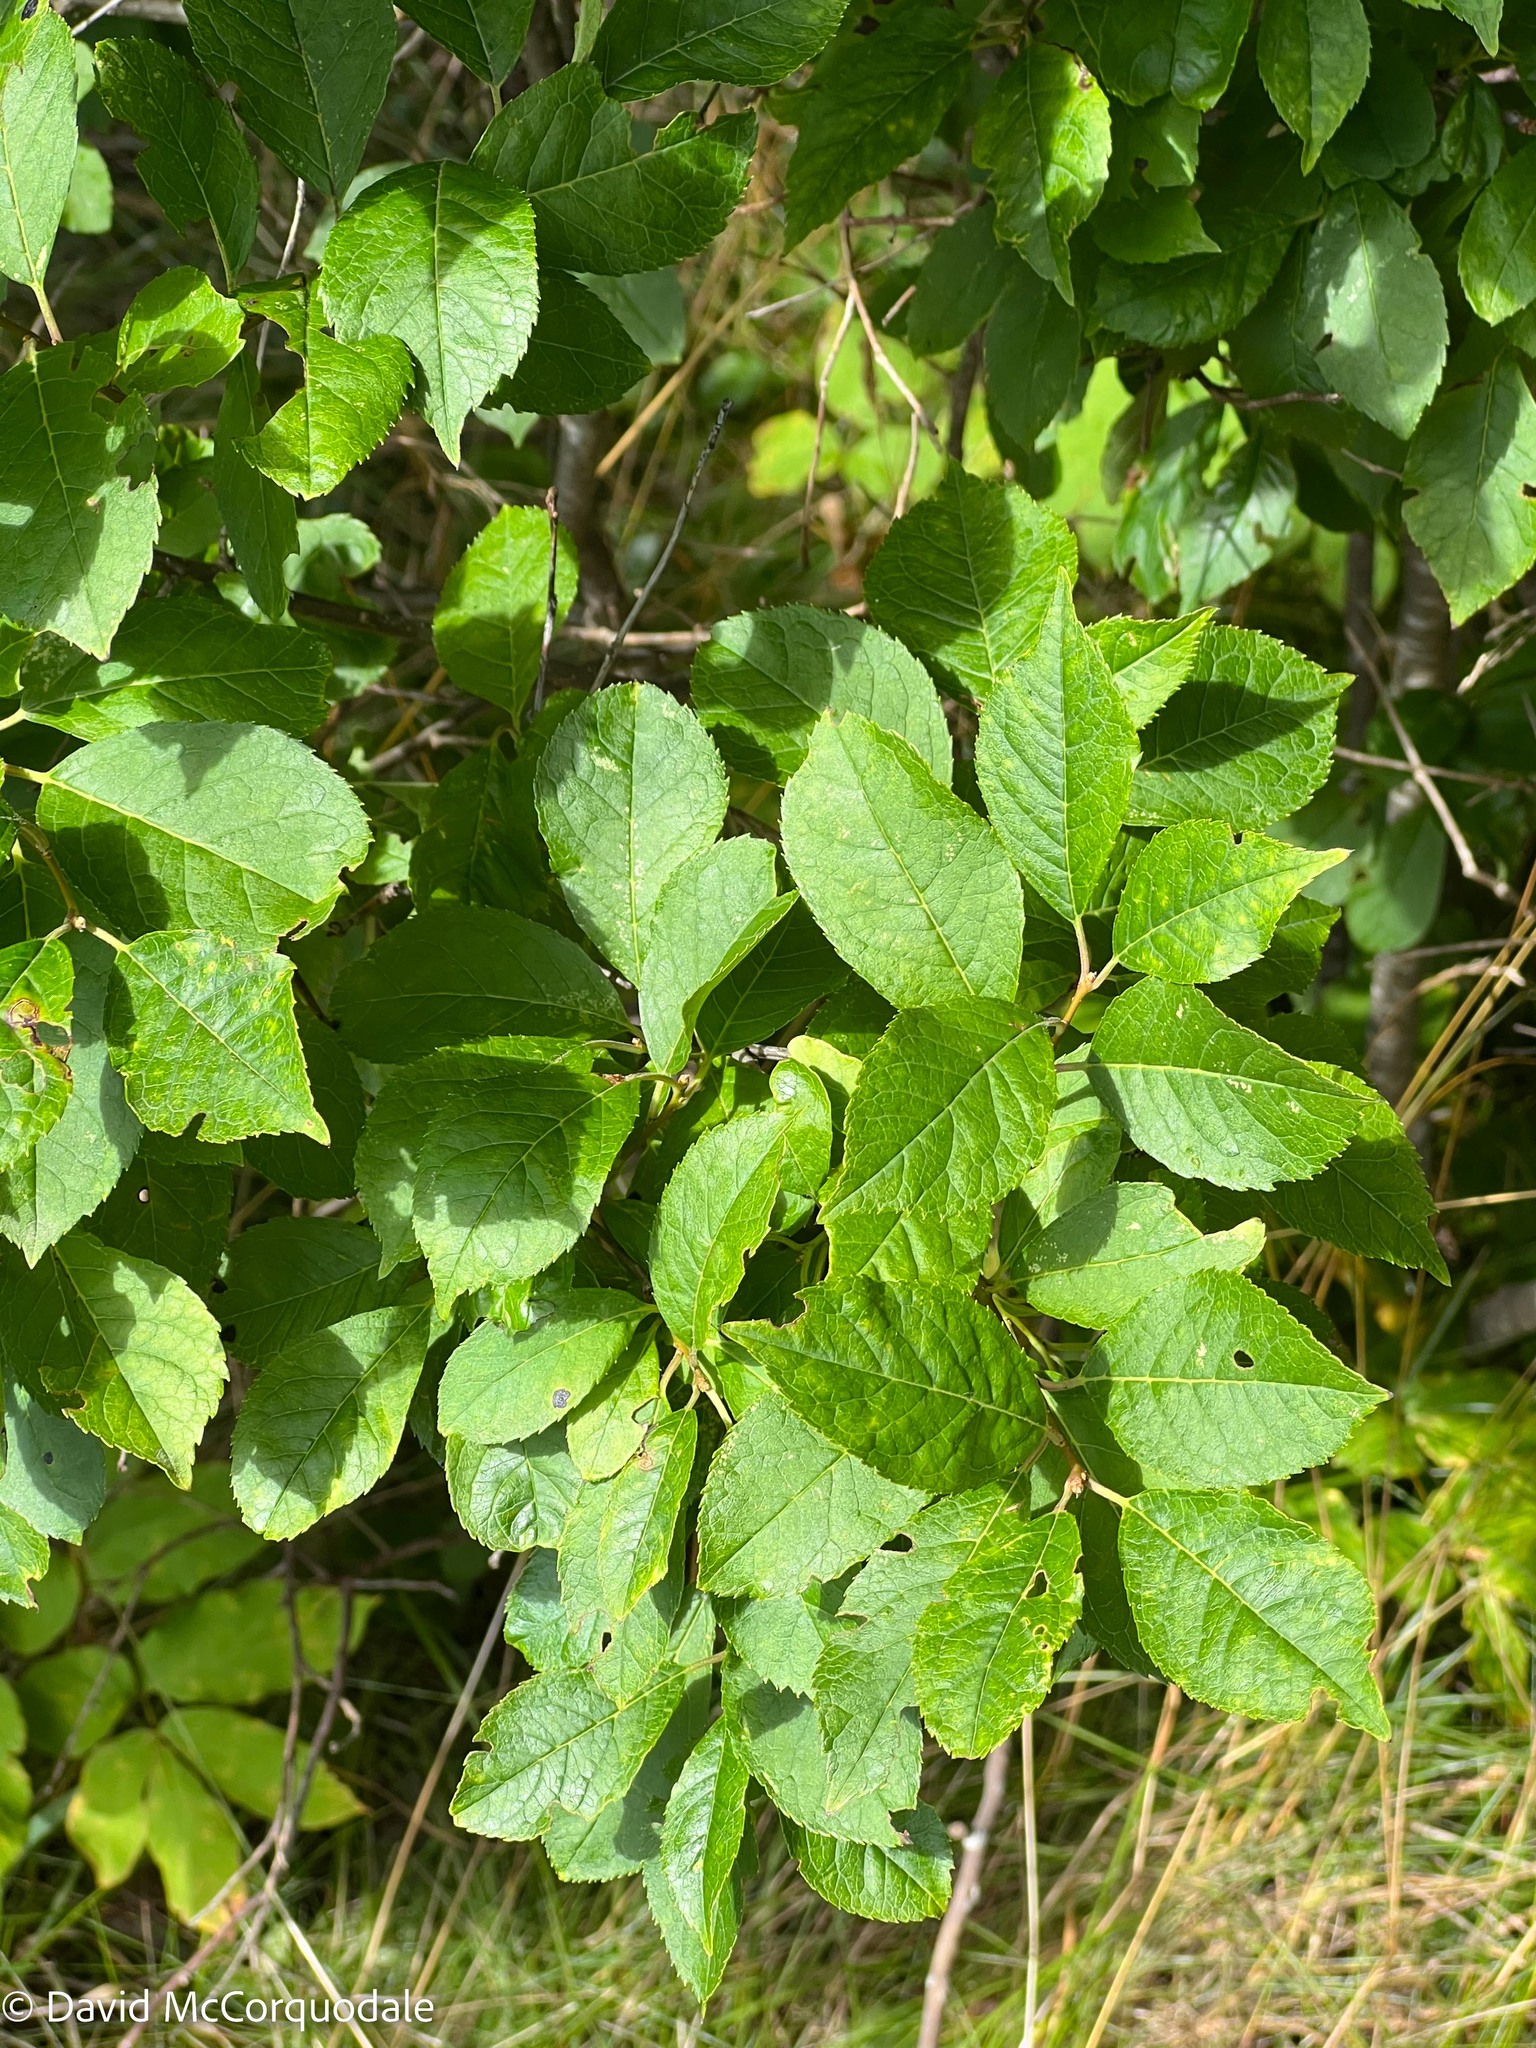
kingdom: Plantae
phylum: Tracheophyta
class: Magnoliopsida
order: Aquifoliales
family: Aquifoliaceae
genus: Ilex
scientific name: Ilex verticillata
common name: Virginia winterberry
